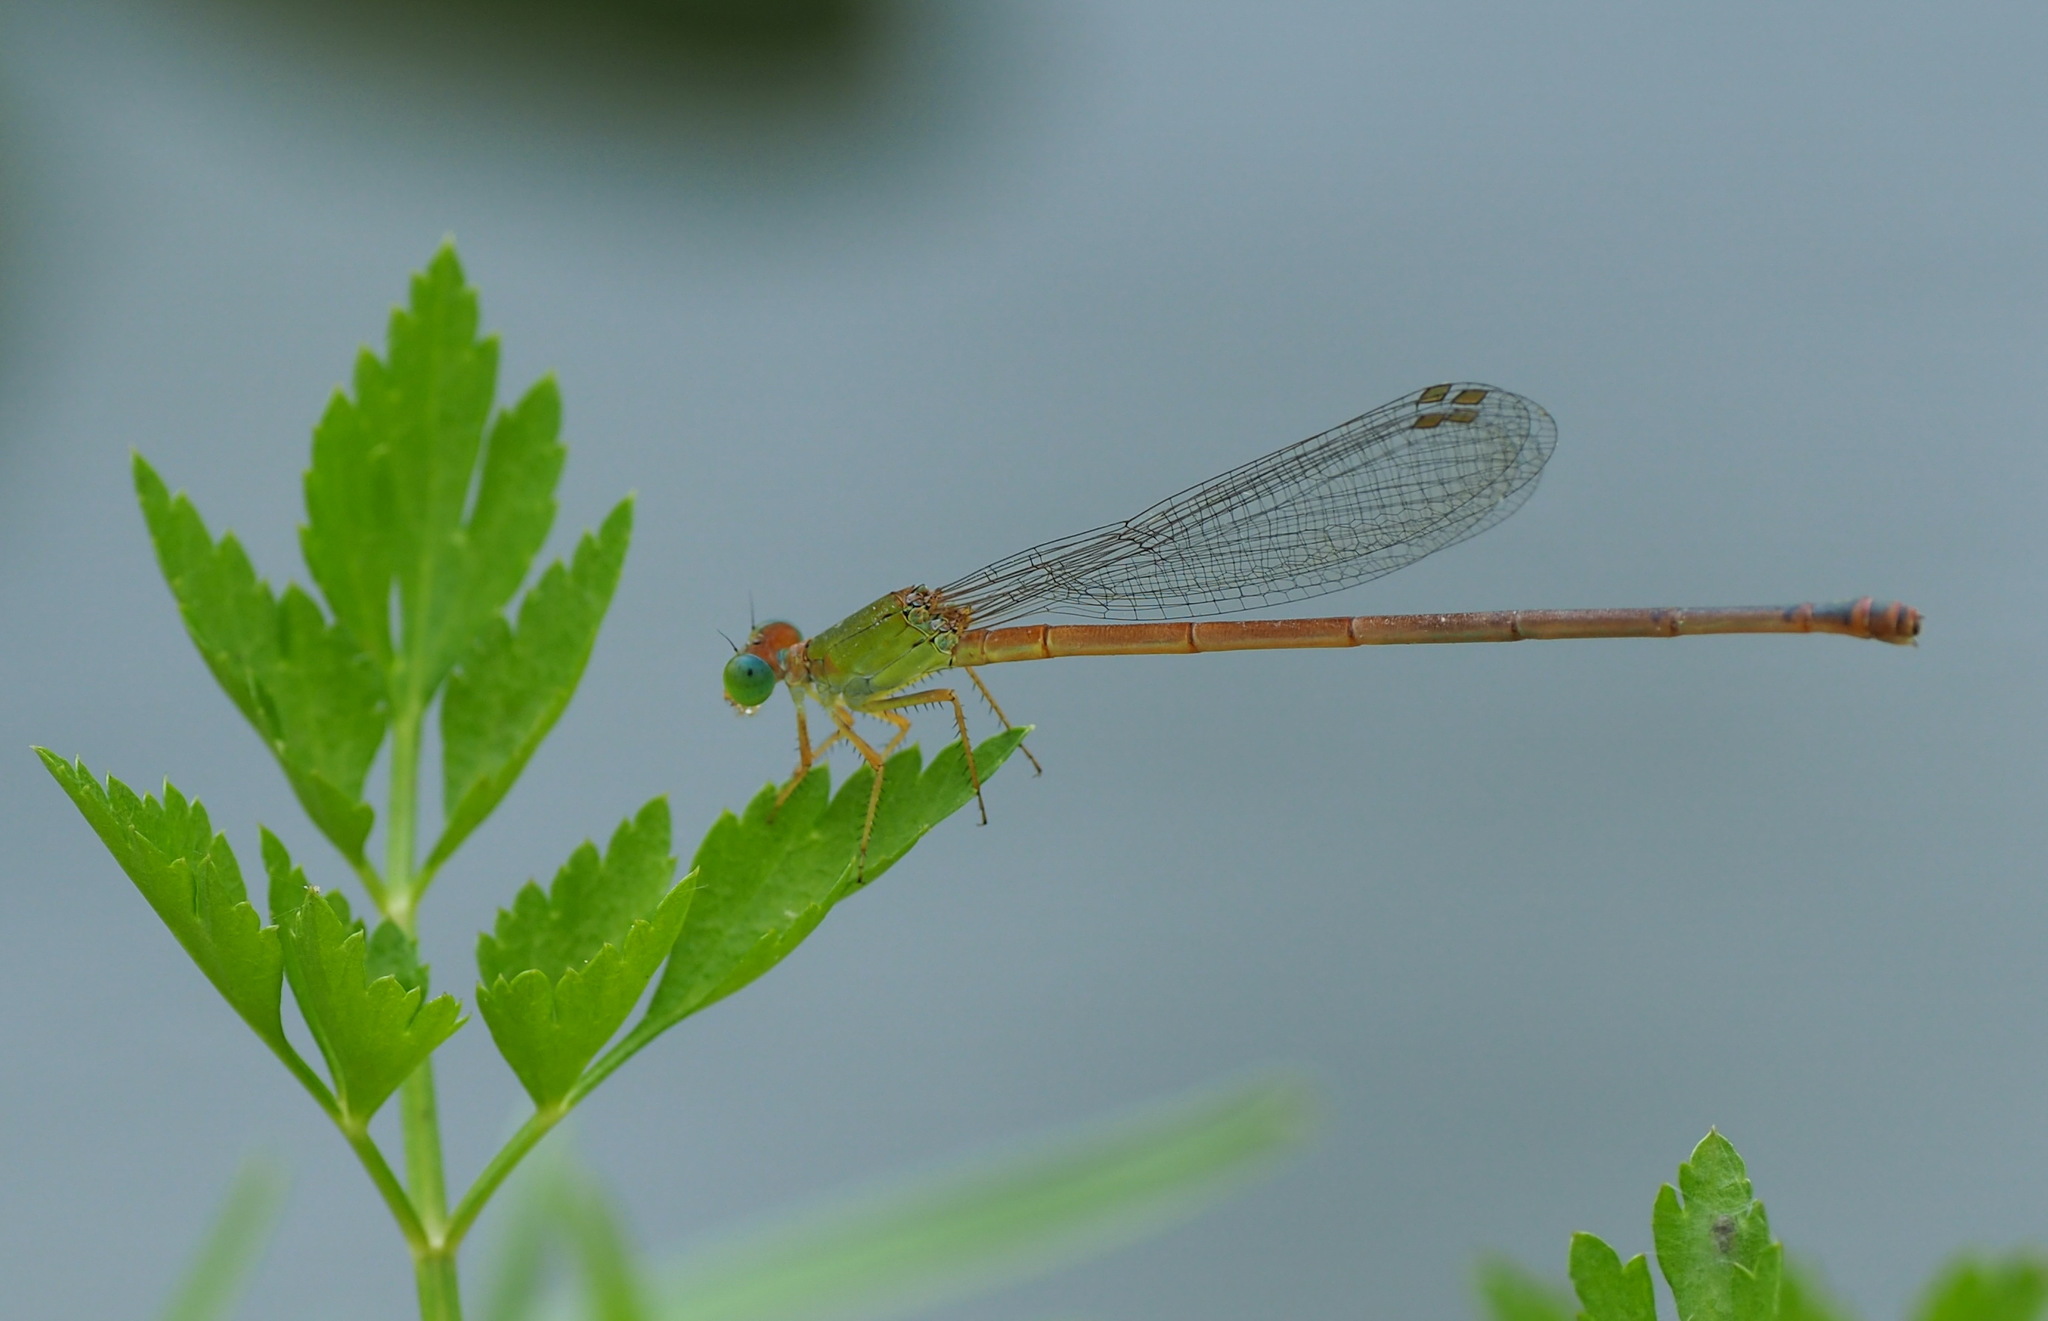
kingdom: Animalia
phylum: Arthropoda
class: Insecta
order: Odonata
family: Coenagrionidae
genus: Ceriagrion
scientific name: Ceriagrion auranticum
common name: Orange-tailed sprite
